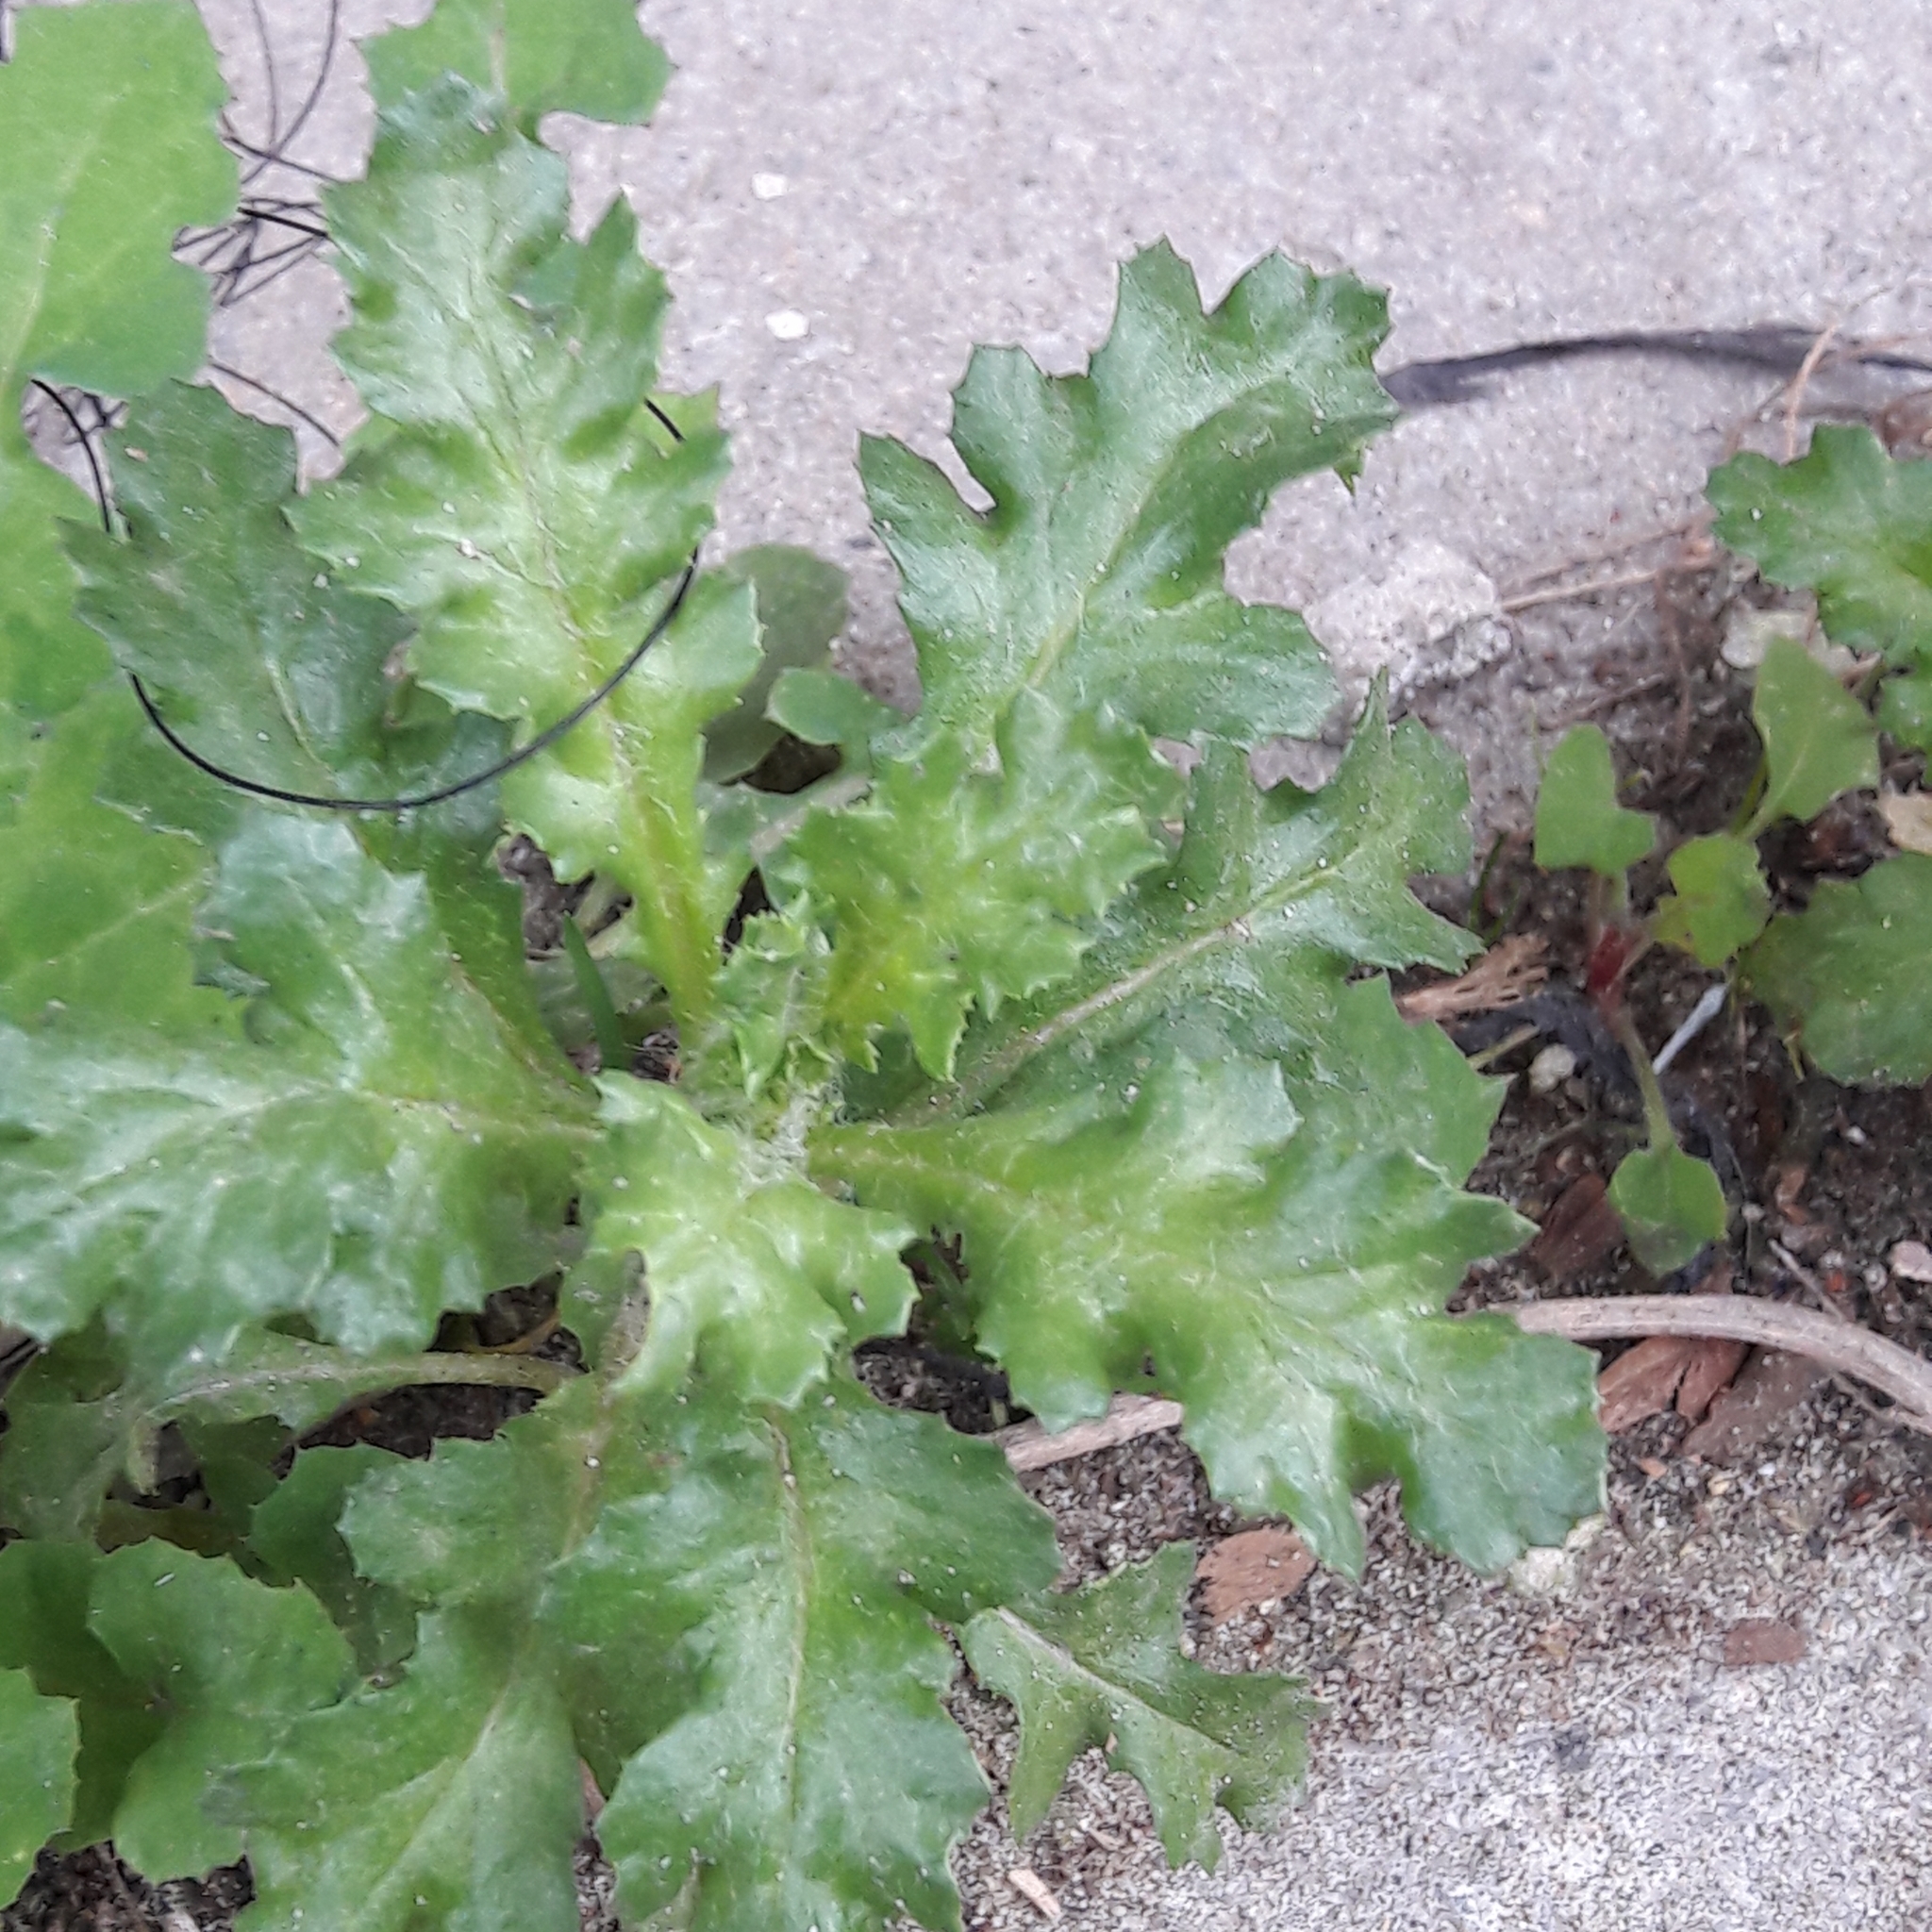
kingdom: Plantae
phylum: Tracheophyta
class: Magnoliopsida
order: Asterales
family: Asteraceae
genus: Senecio
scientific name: Senecio vulgaris
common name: Old-man-in-the-spring
